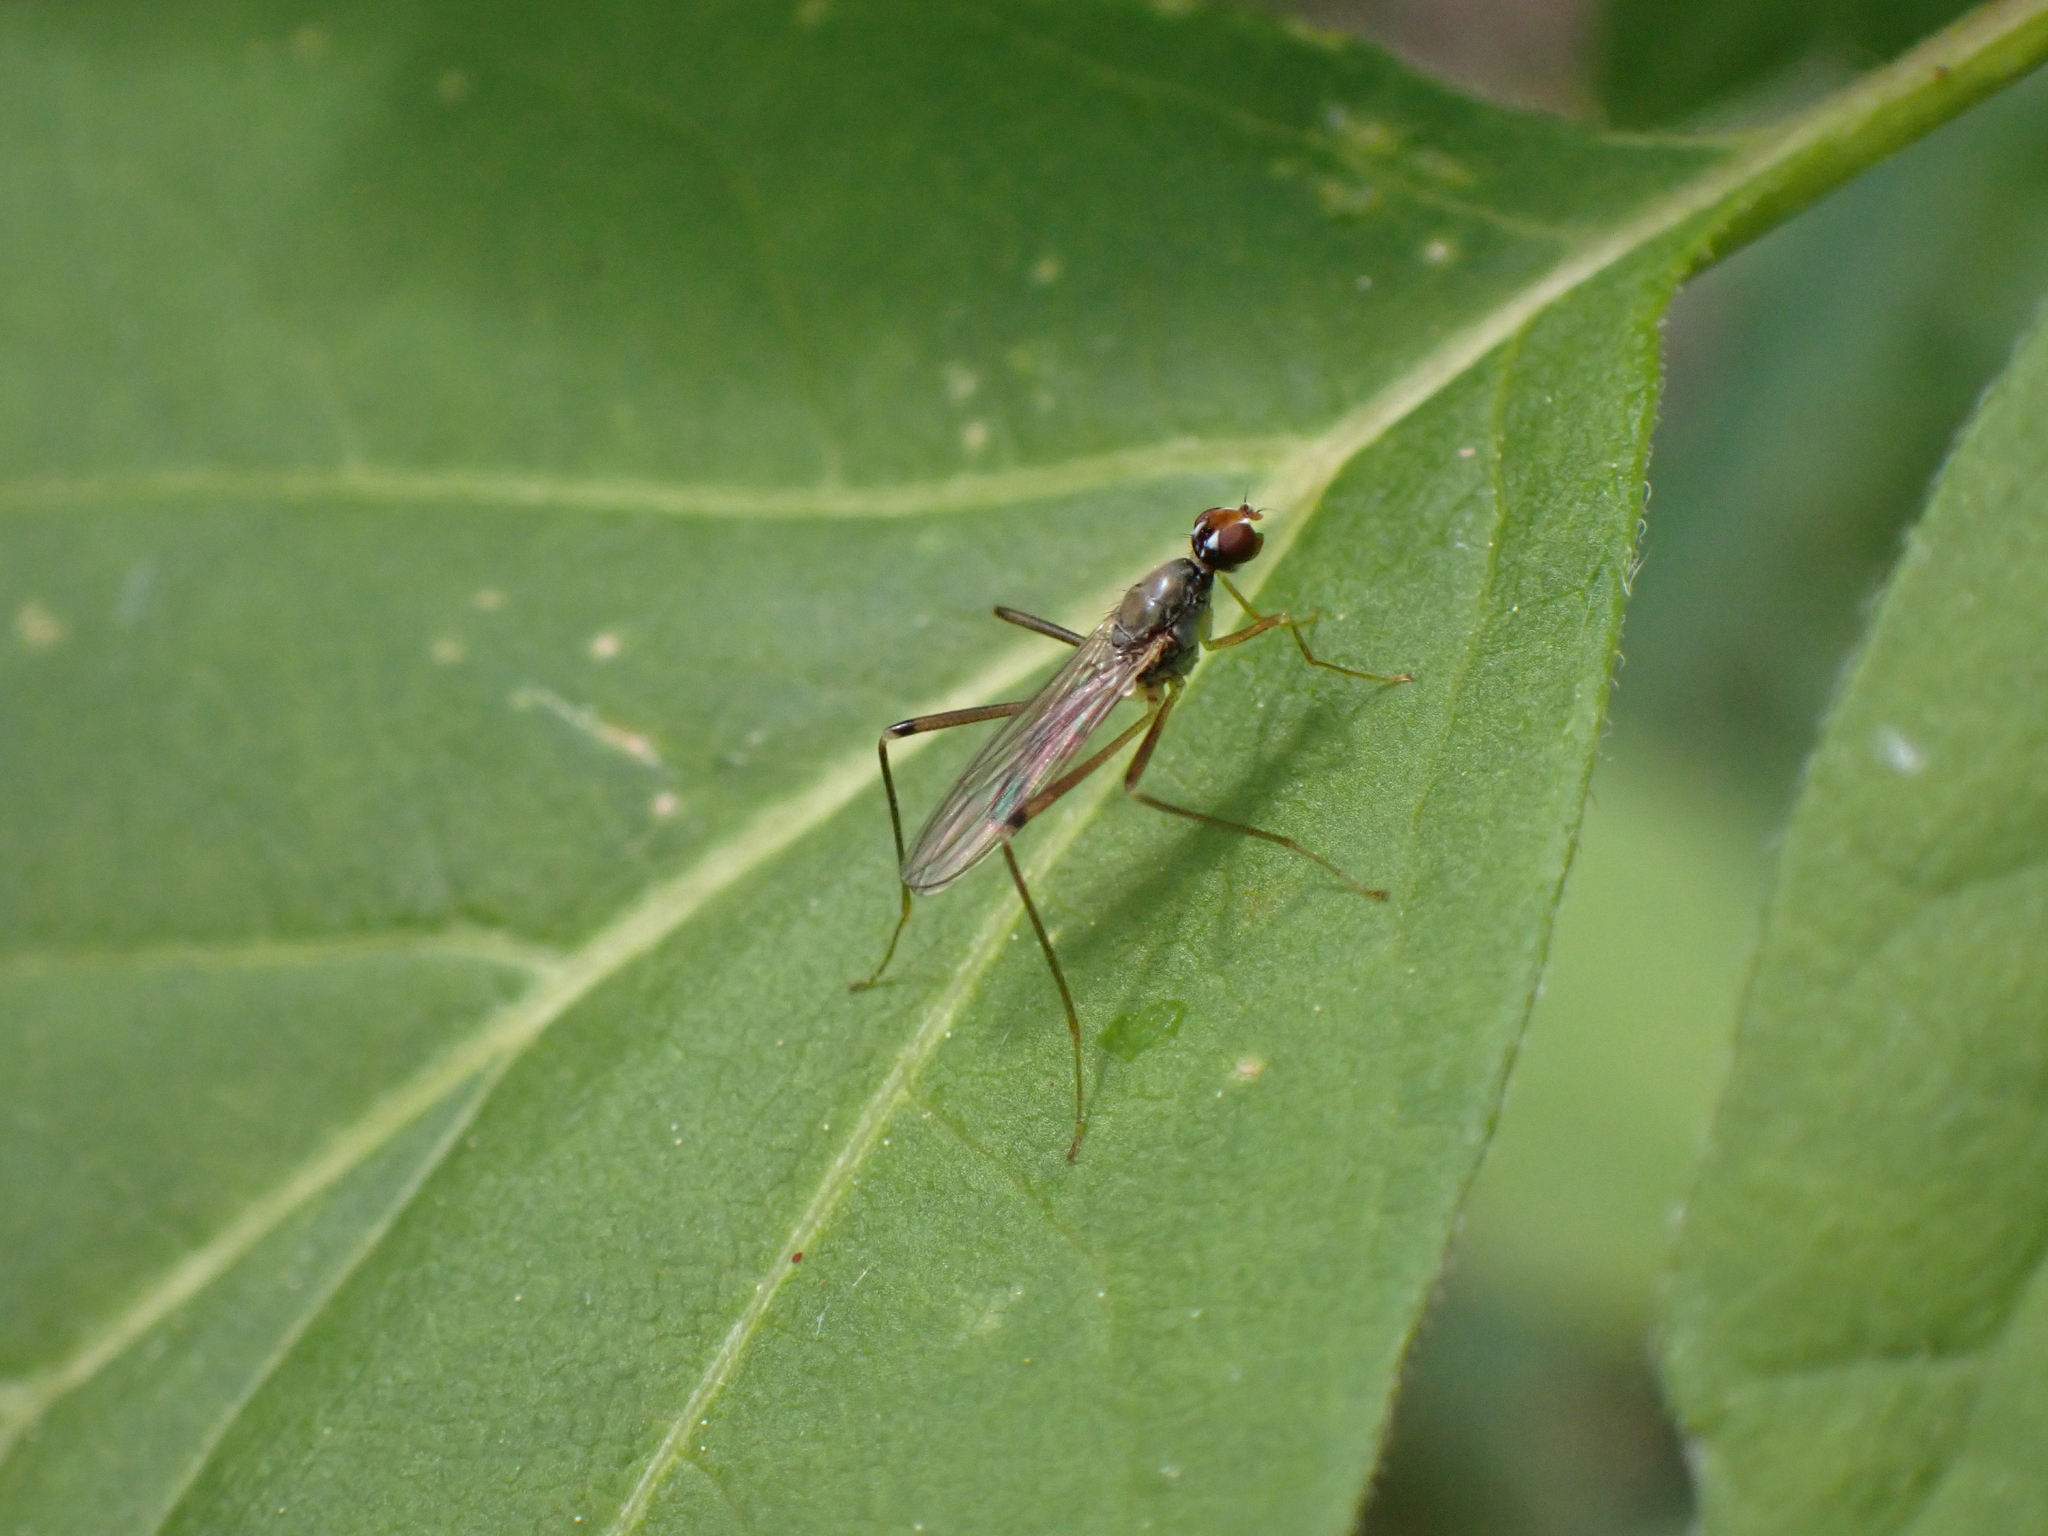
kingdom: Animalia
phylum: Arthropoda
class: Insecta
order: Diptera
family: Micropezidae
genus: Compsobata
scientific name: Compsobata cibaria
